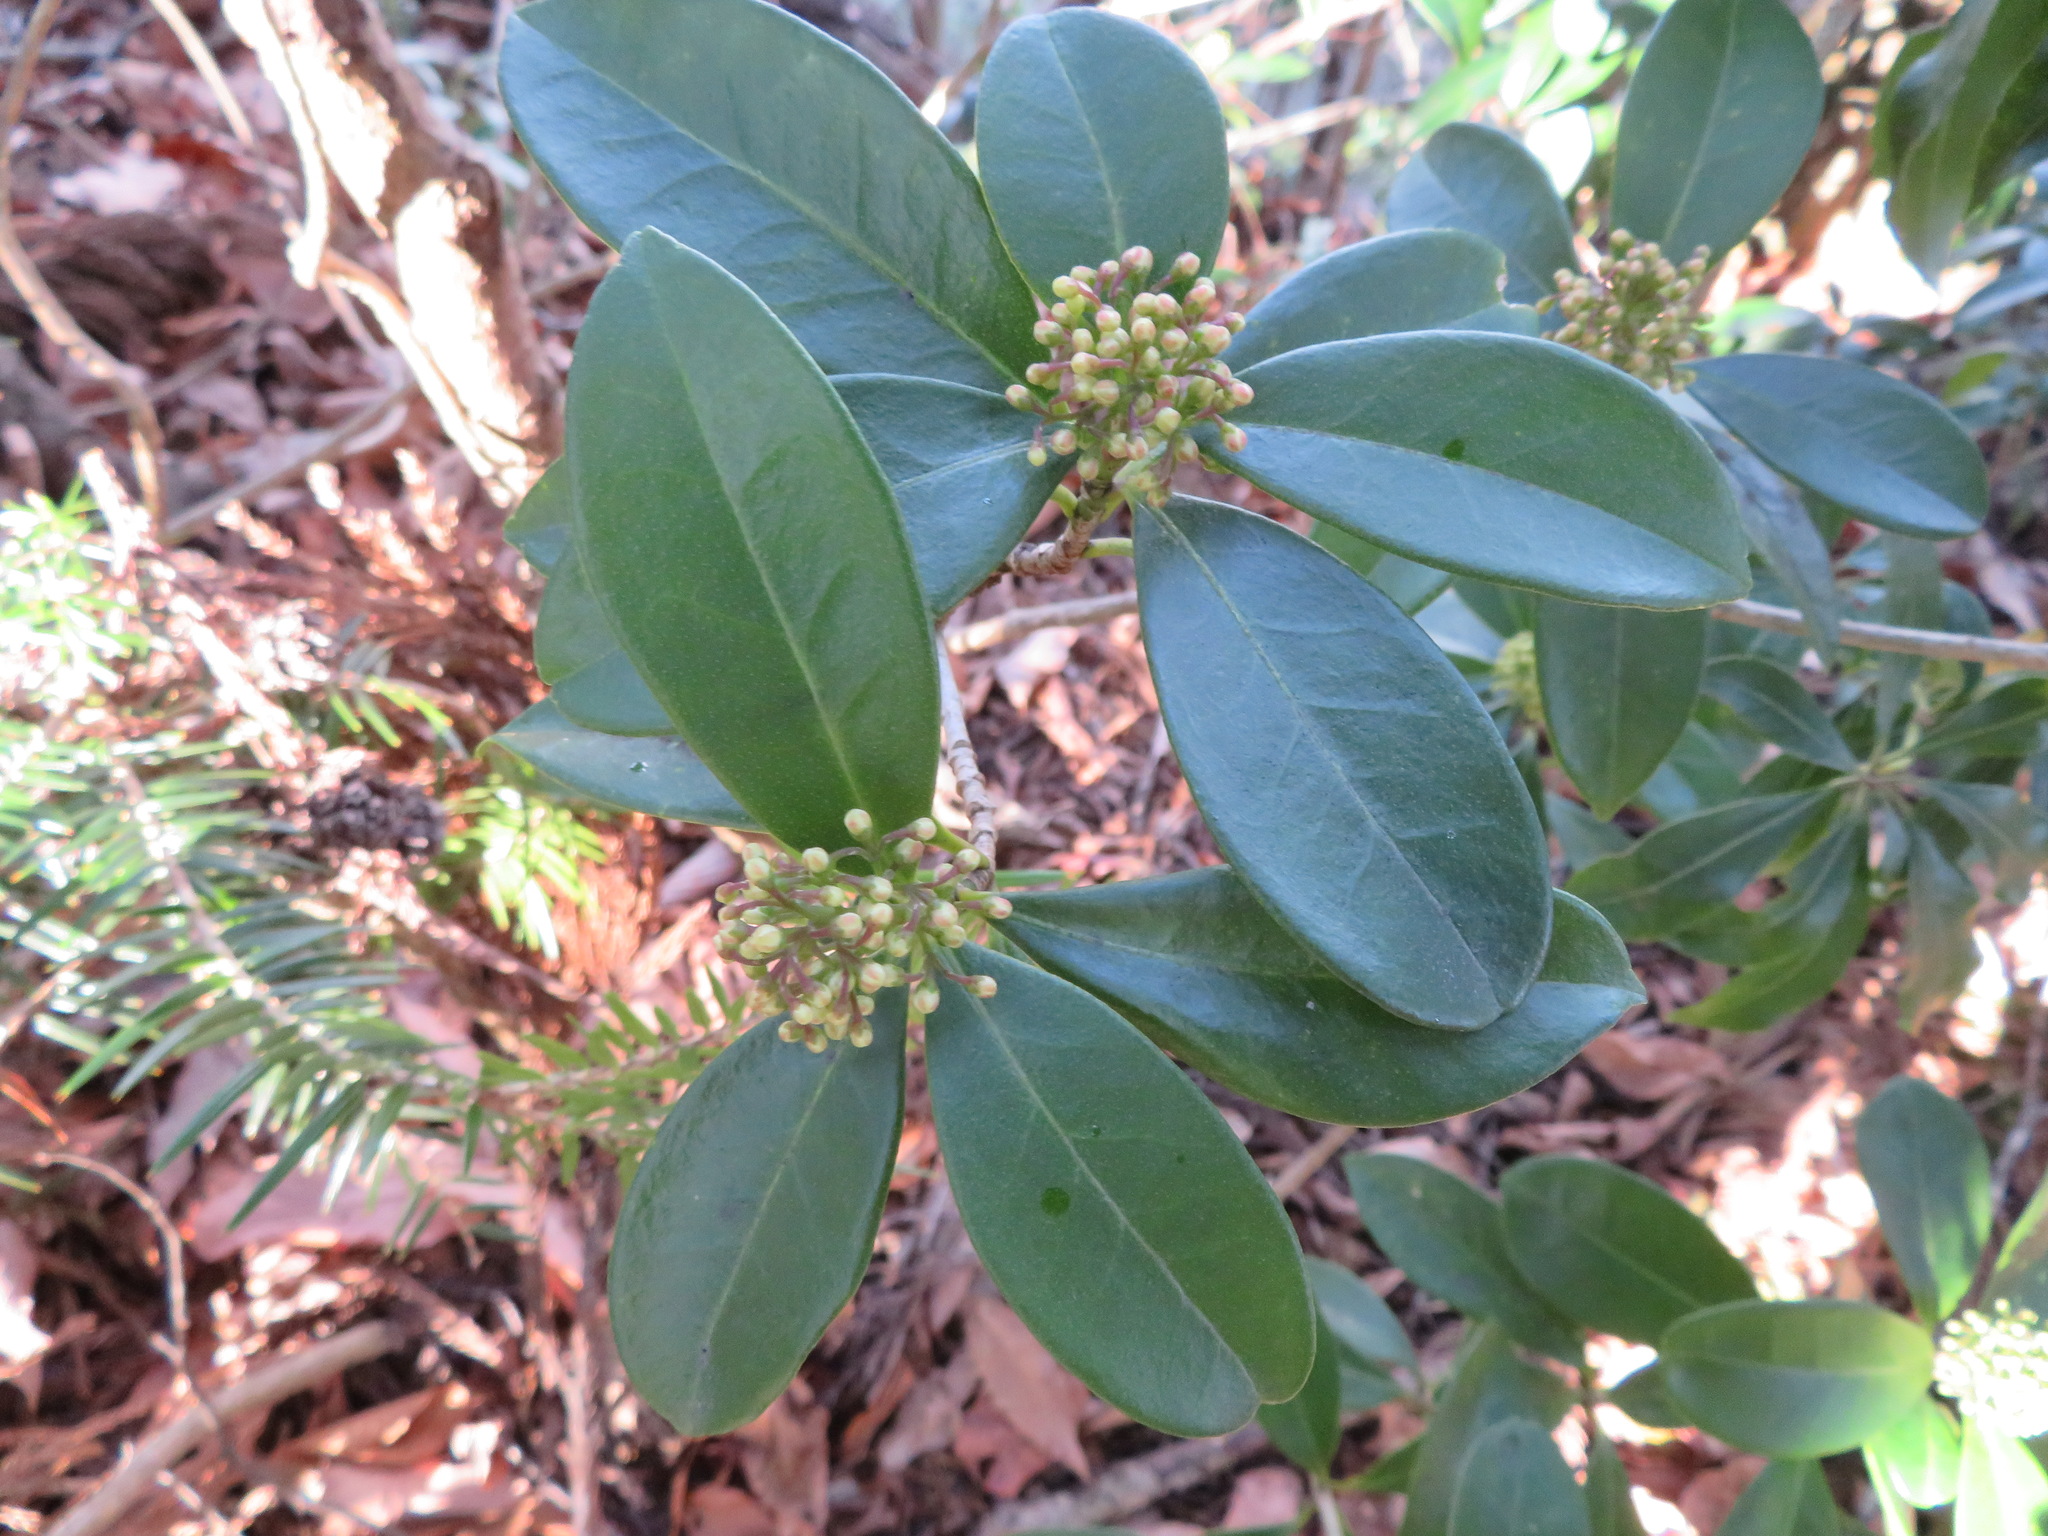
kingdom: Plantae
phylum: Tracheophyta
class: Magnoliopsida
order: Sapindales
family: Rutaceae
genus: Skimmia
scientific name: Skimmia japonica
